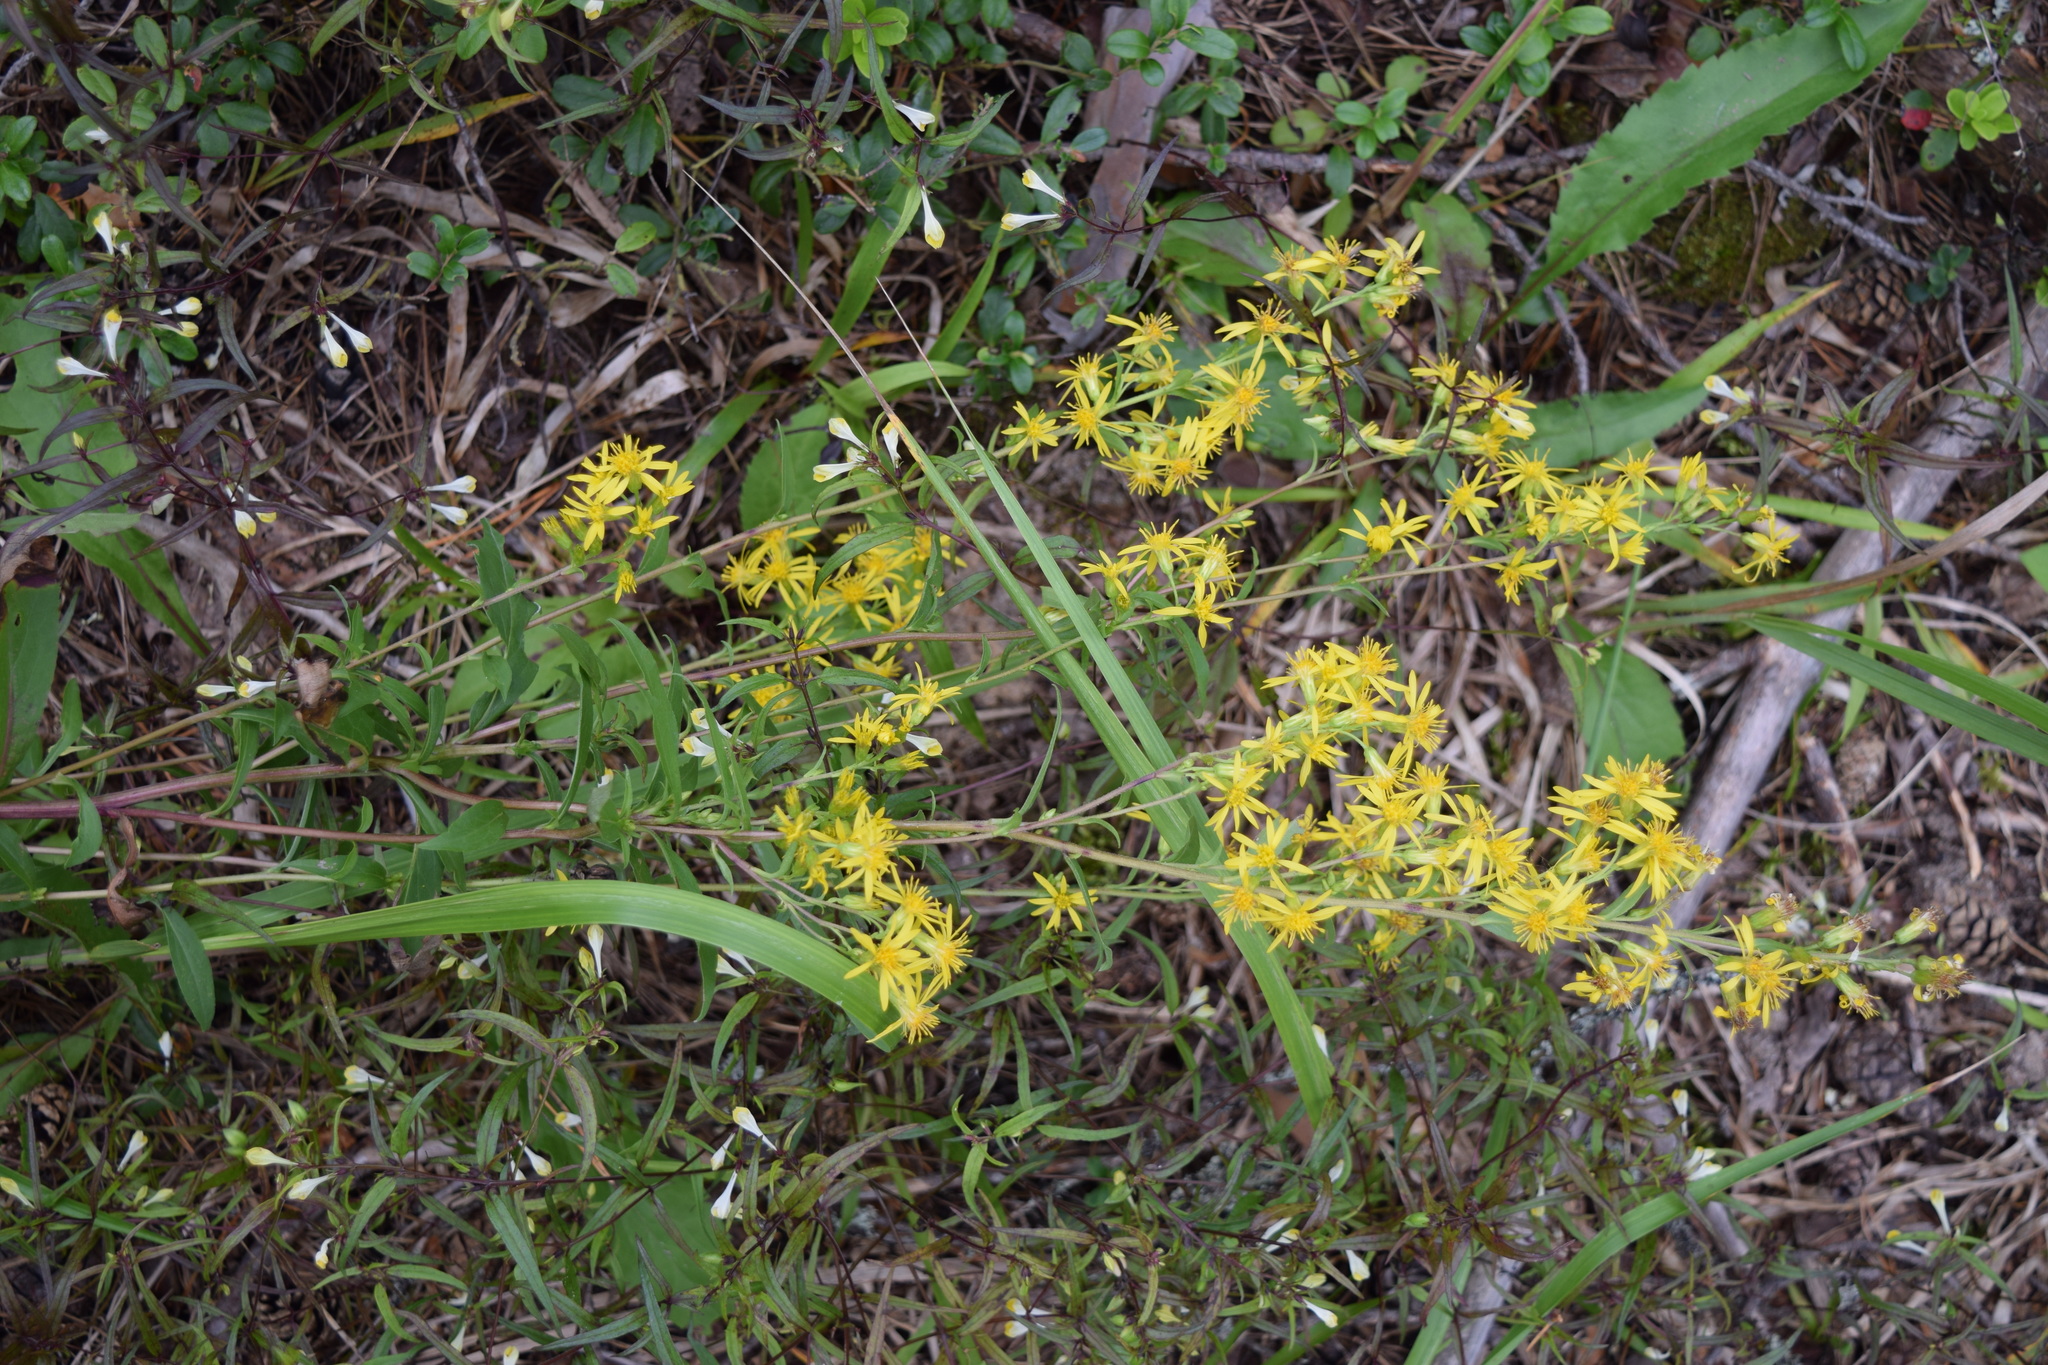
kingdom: Plantae
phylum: Tracheophyta
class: Magnoliopsida
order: Asterales
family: Asteraceae
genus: Solidago
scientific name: Solidago virgaurea
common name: Goldenrod
